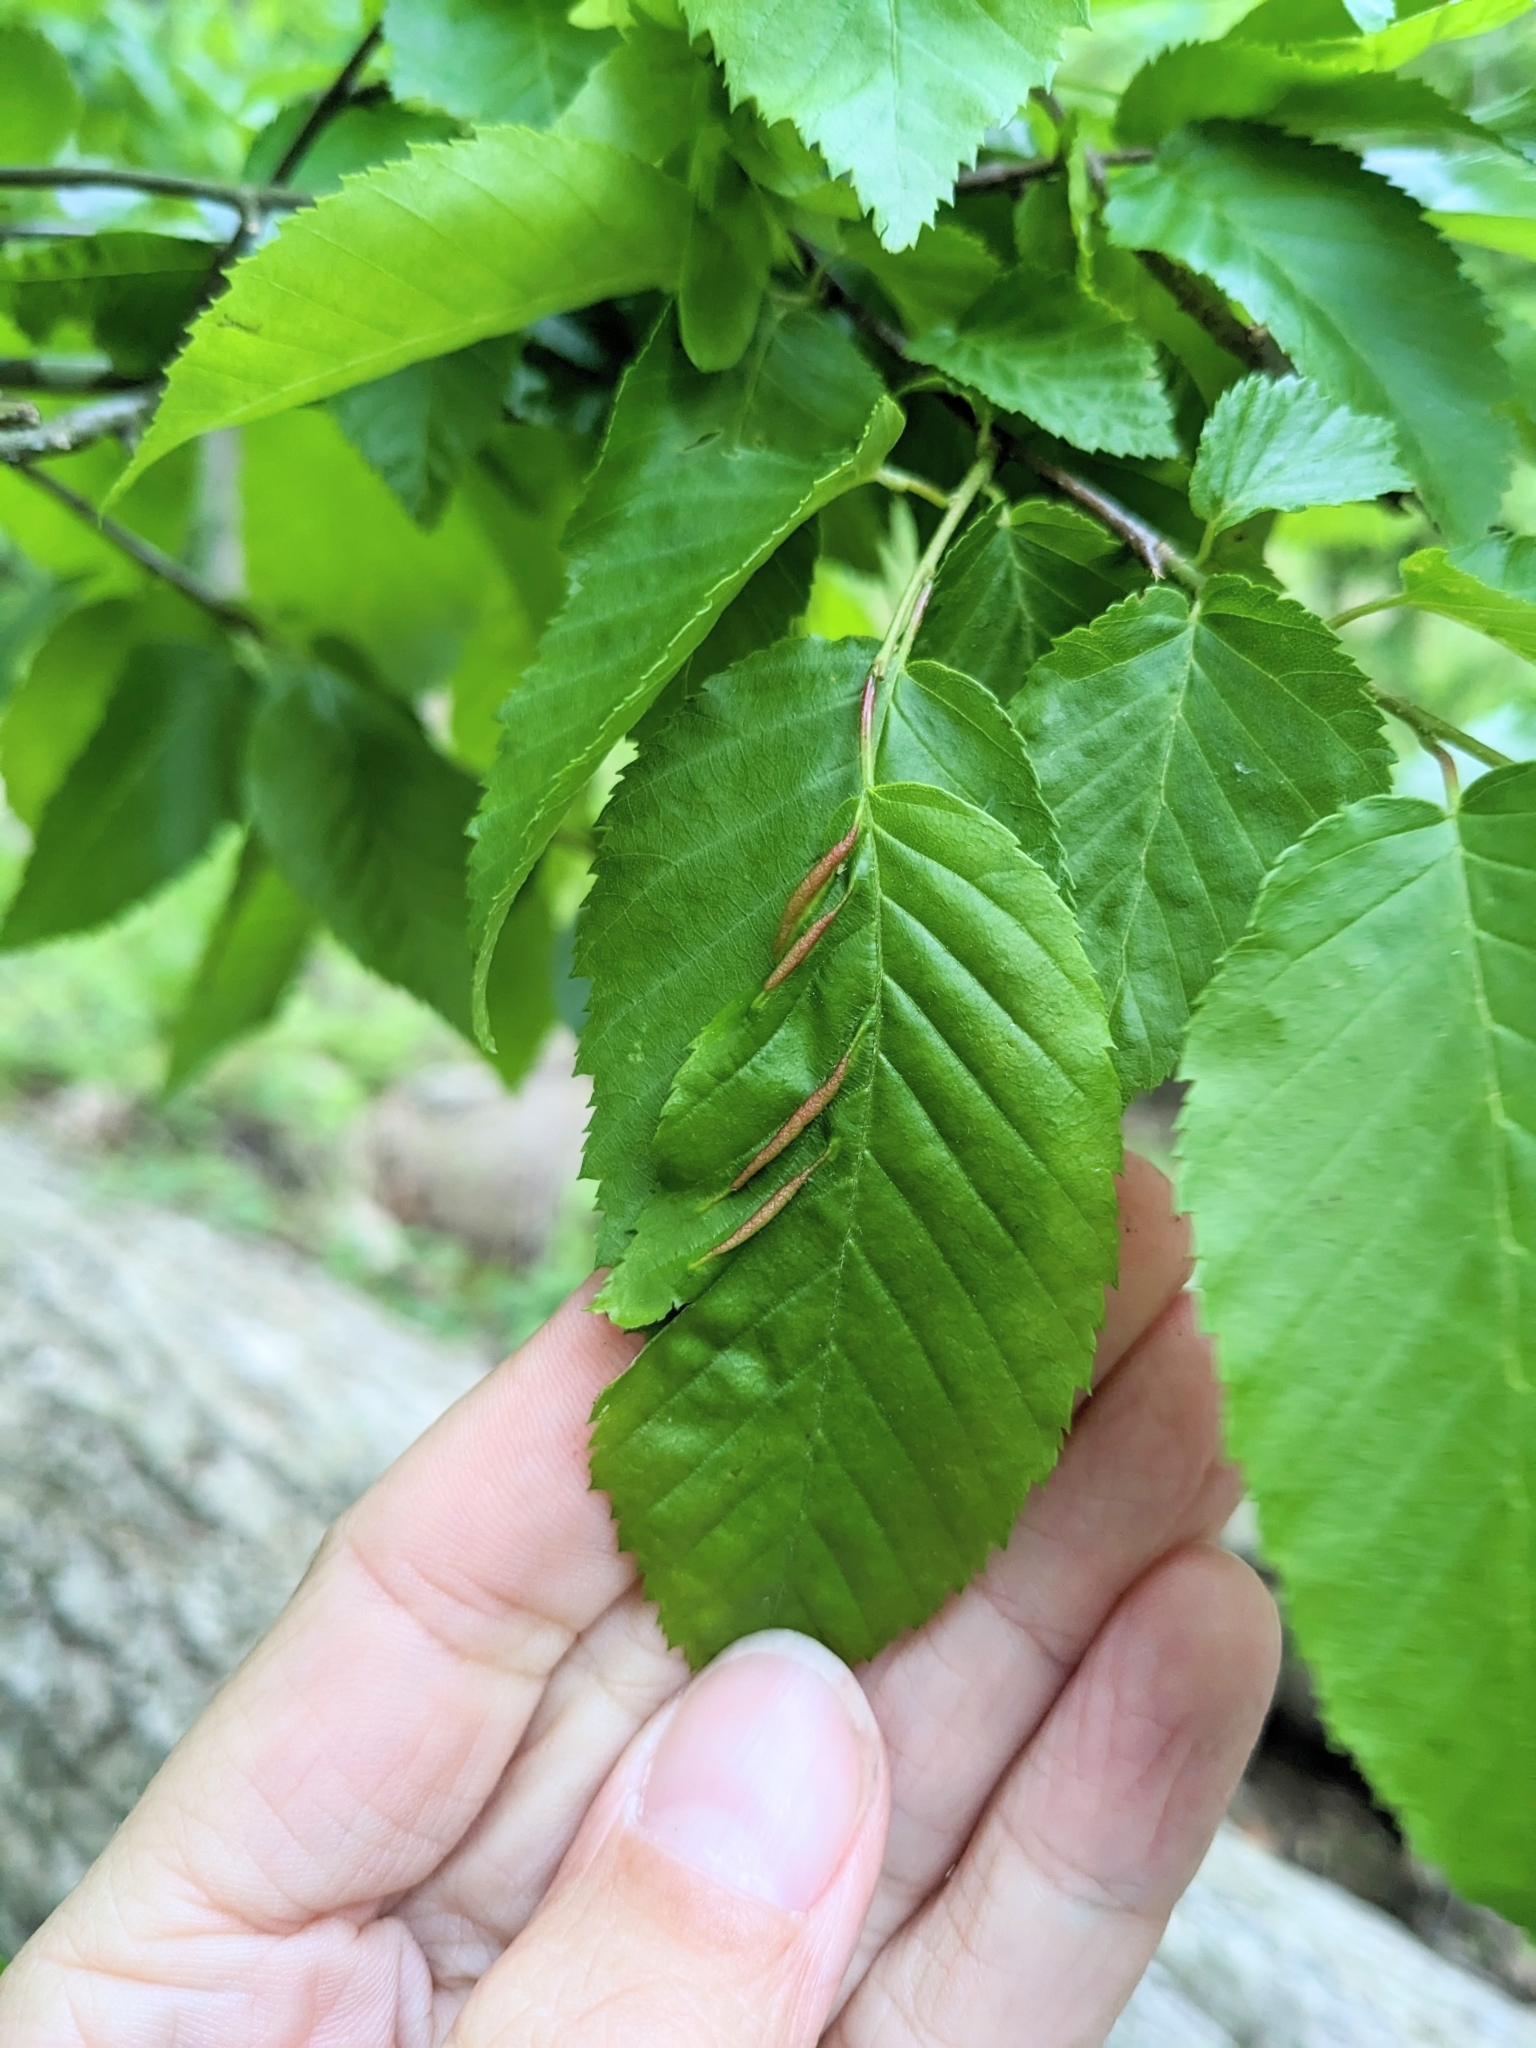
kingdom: Animalia
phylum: Arthropoda
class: Insecta
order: Diptera
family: Cecidomyiidae
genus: Dasineura
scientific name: Dasineura pudibunda
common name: Hornbeam leaf gall midge
